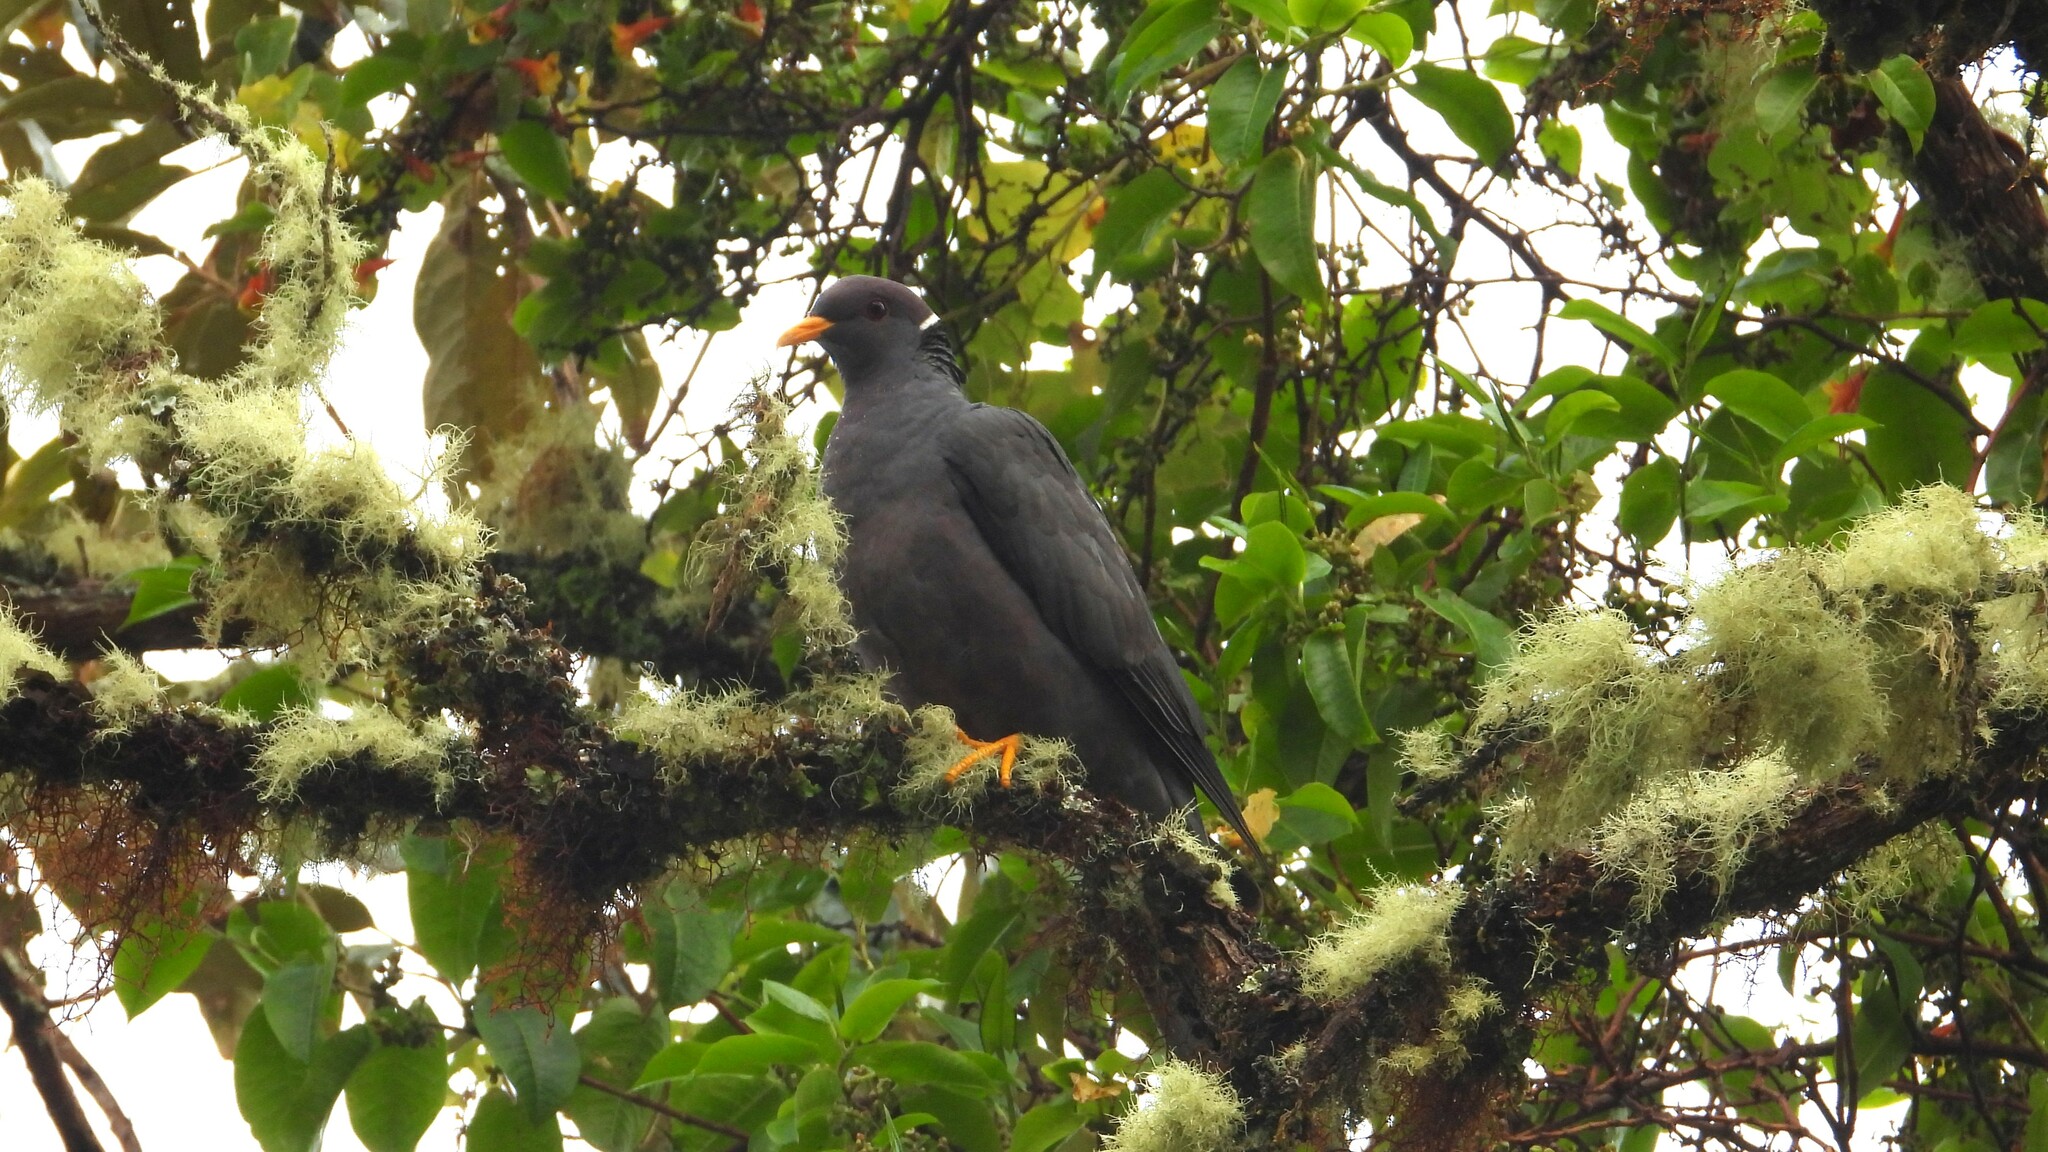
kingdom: Animalia
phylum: Chordata
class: Aves
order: Columbiformes
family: Columbidae
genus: Patagioenas
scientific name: Patagioenas fasciata
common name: Band-tailed pigeon
